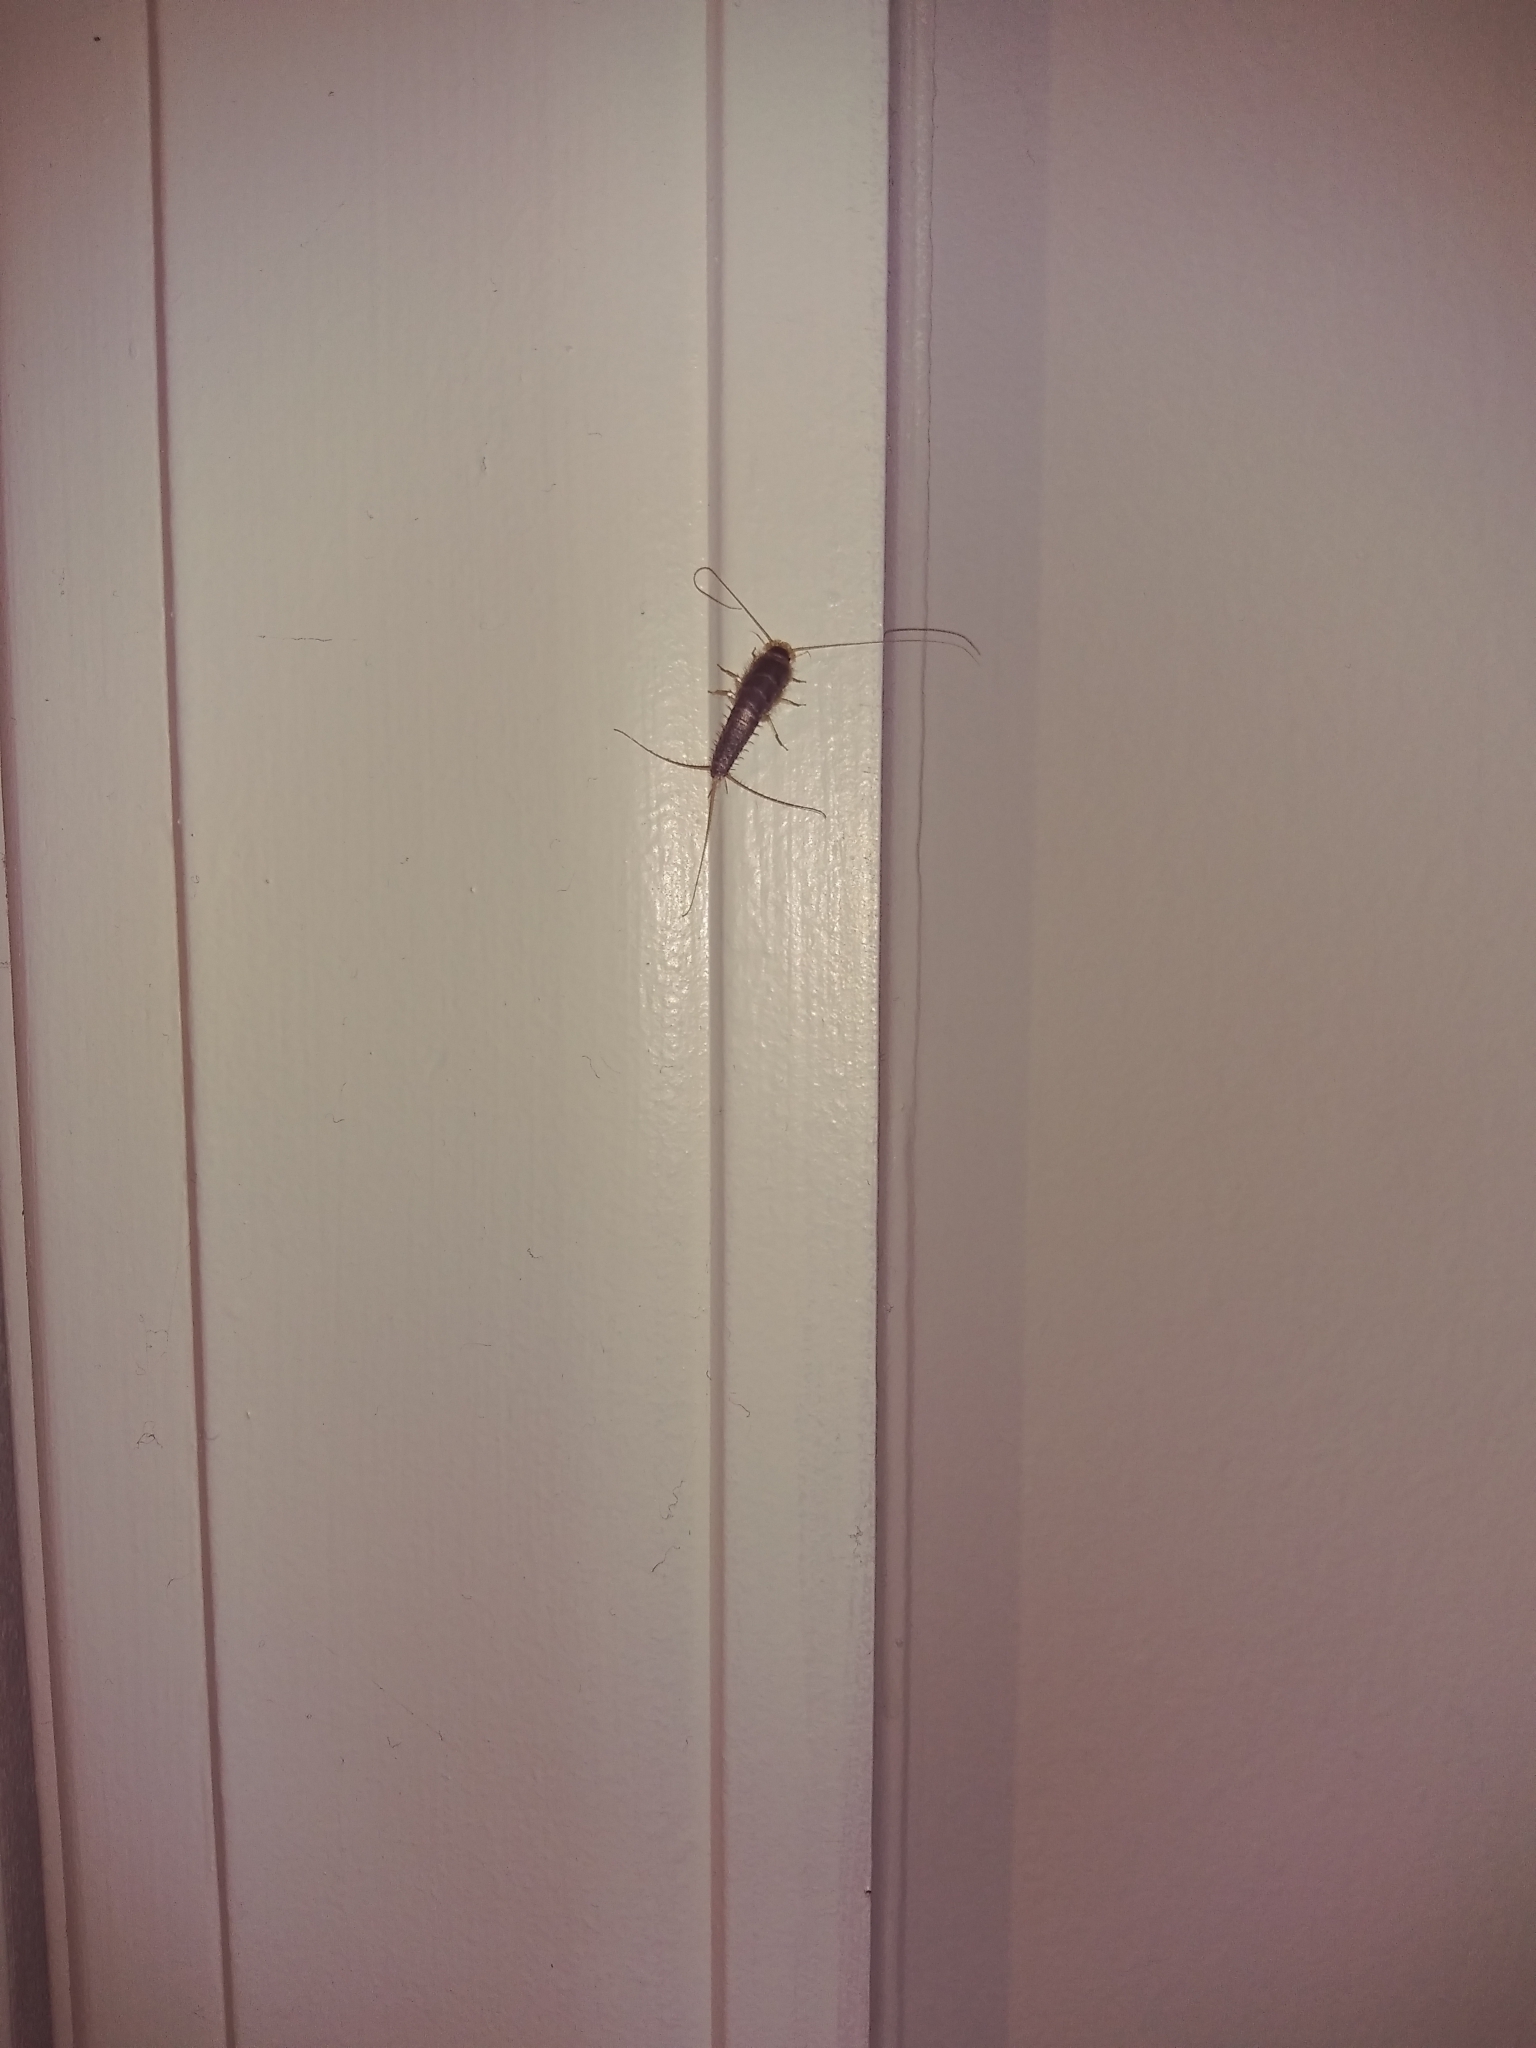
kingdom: Animalia
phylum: Arthropoda
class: Insecta
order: Zygentoma
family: Lepismatidae
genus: Ctenolepisma
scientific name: Ctenolepisma longicaudatum
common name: Silverfish
